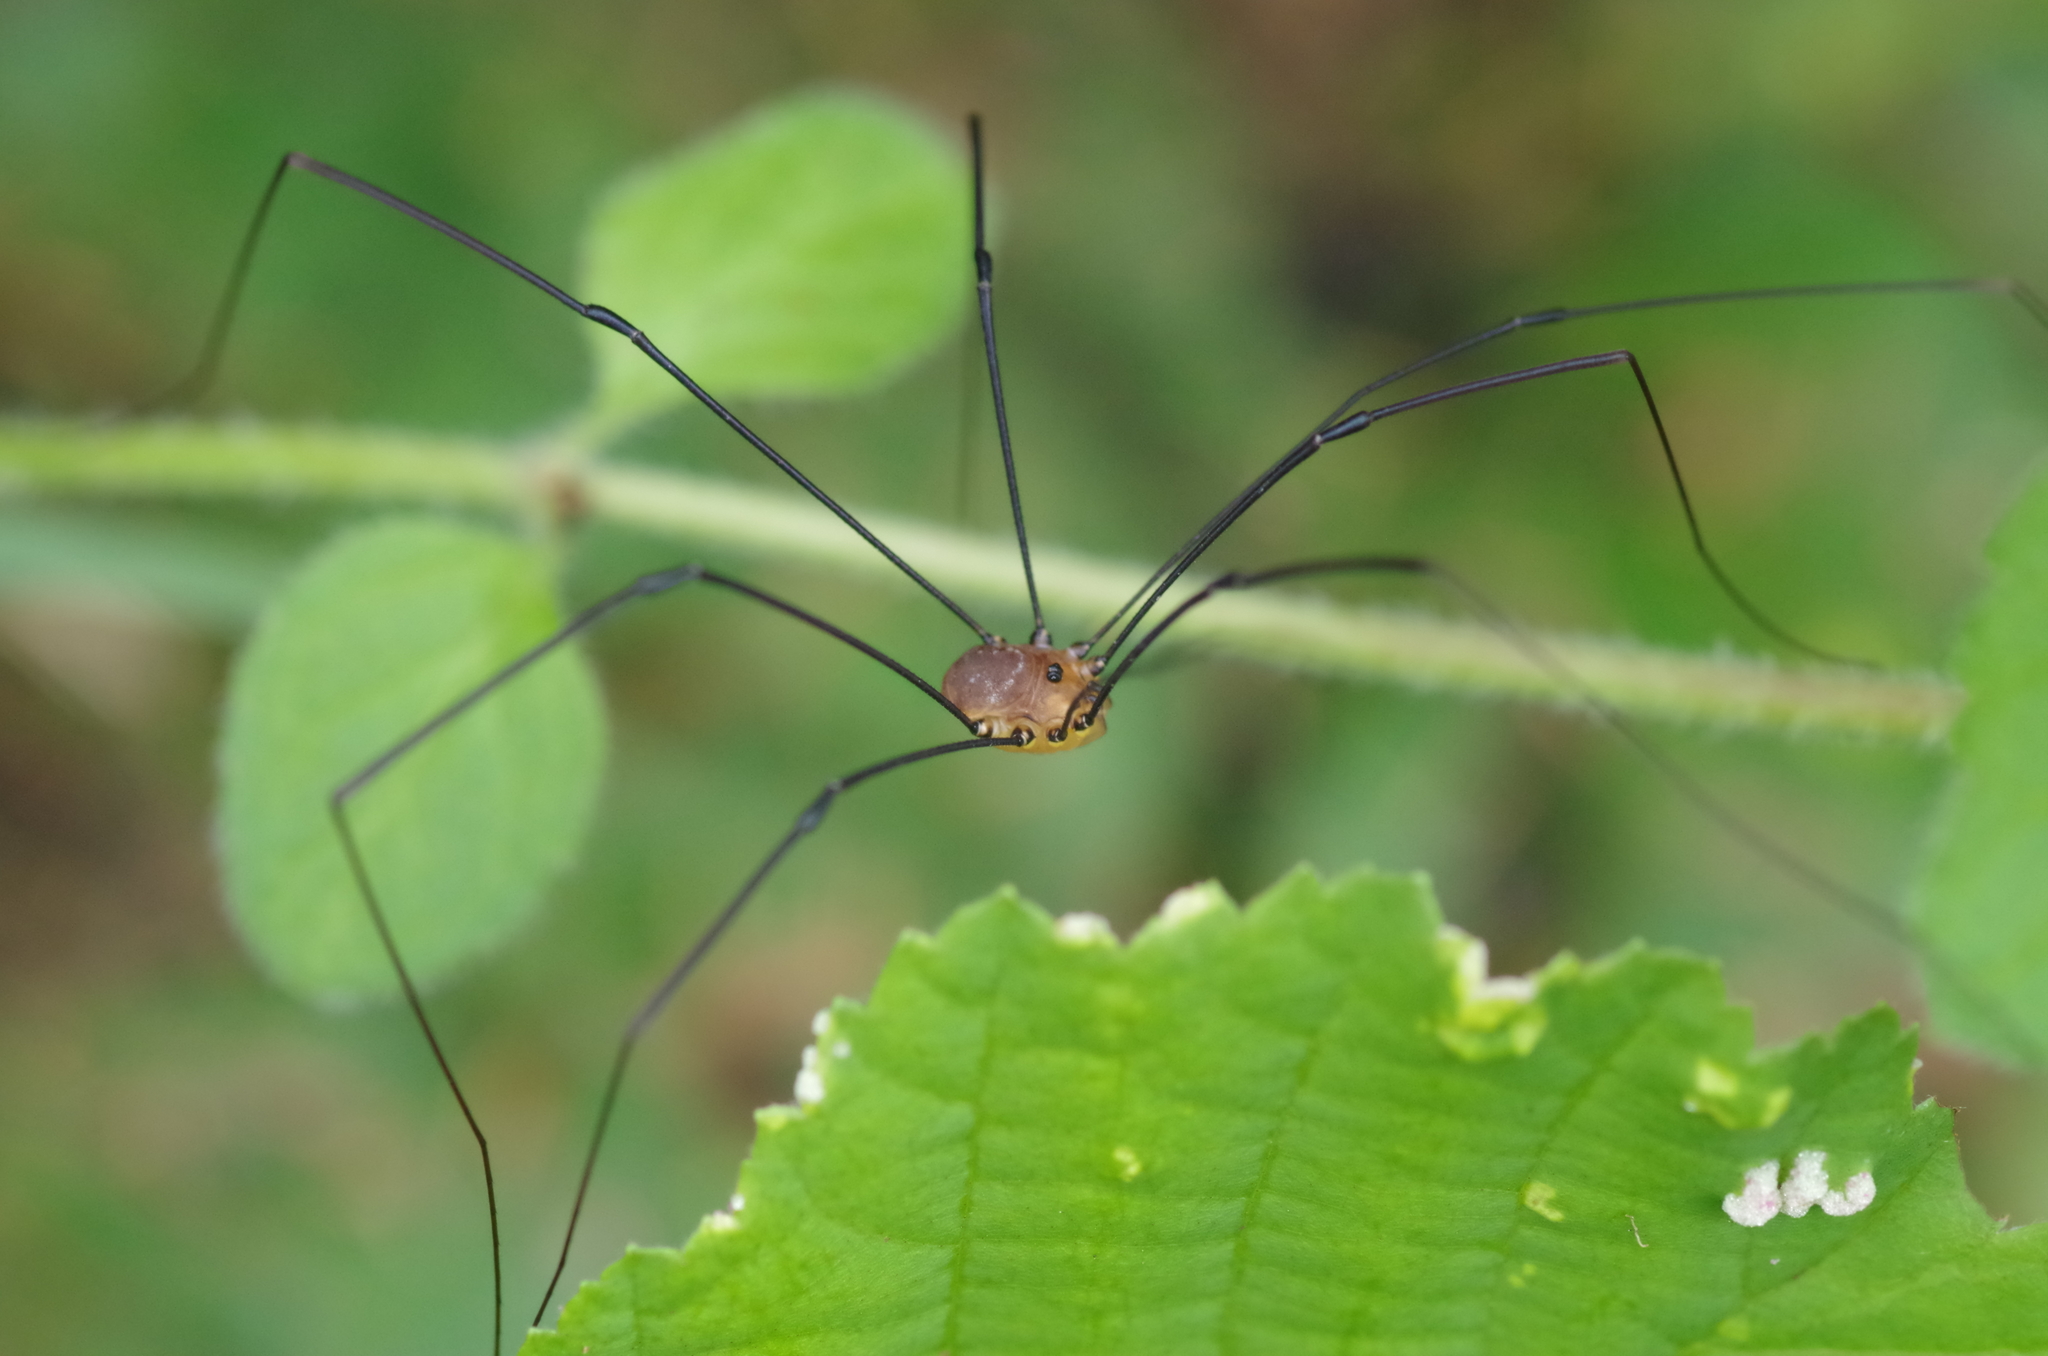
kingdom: Animalia
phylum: Arthropoda
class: Arachnida
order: Opiliones
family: Sclerosomatidae
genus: Leiobunum
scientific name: Leiobunum rotundum
